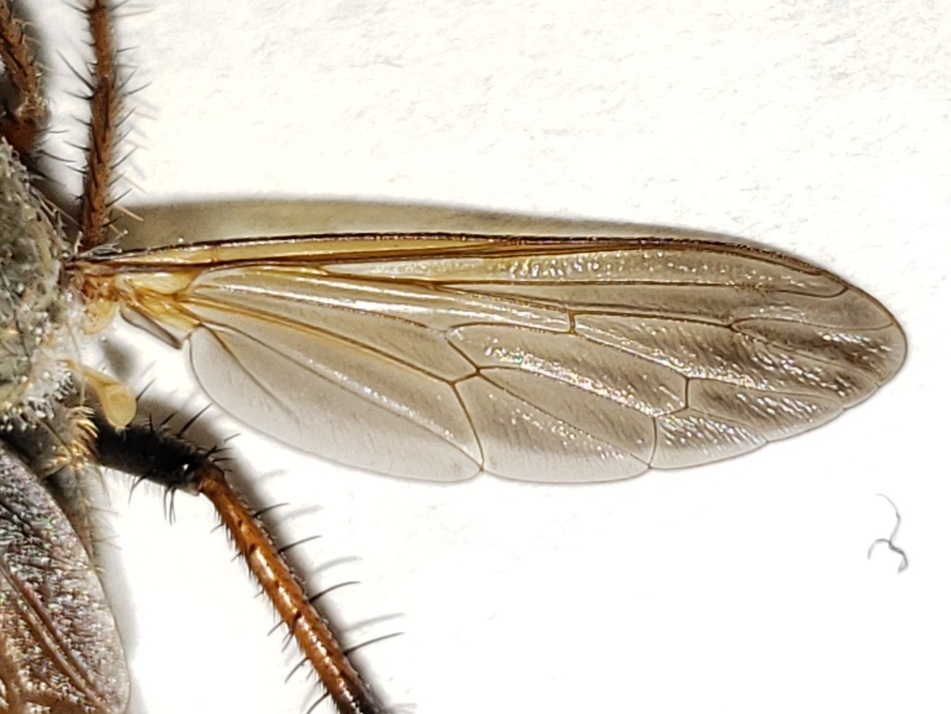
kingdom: Animalia
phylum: Arthropoda
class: Insecta
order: Diptera
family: Asilidae
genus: Scleropogon
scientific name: Scleropogon floridensis
